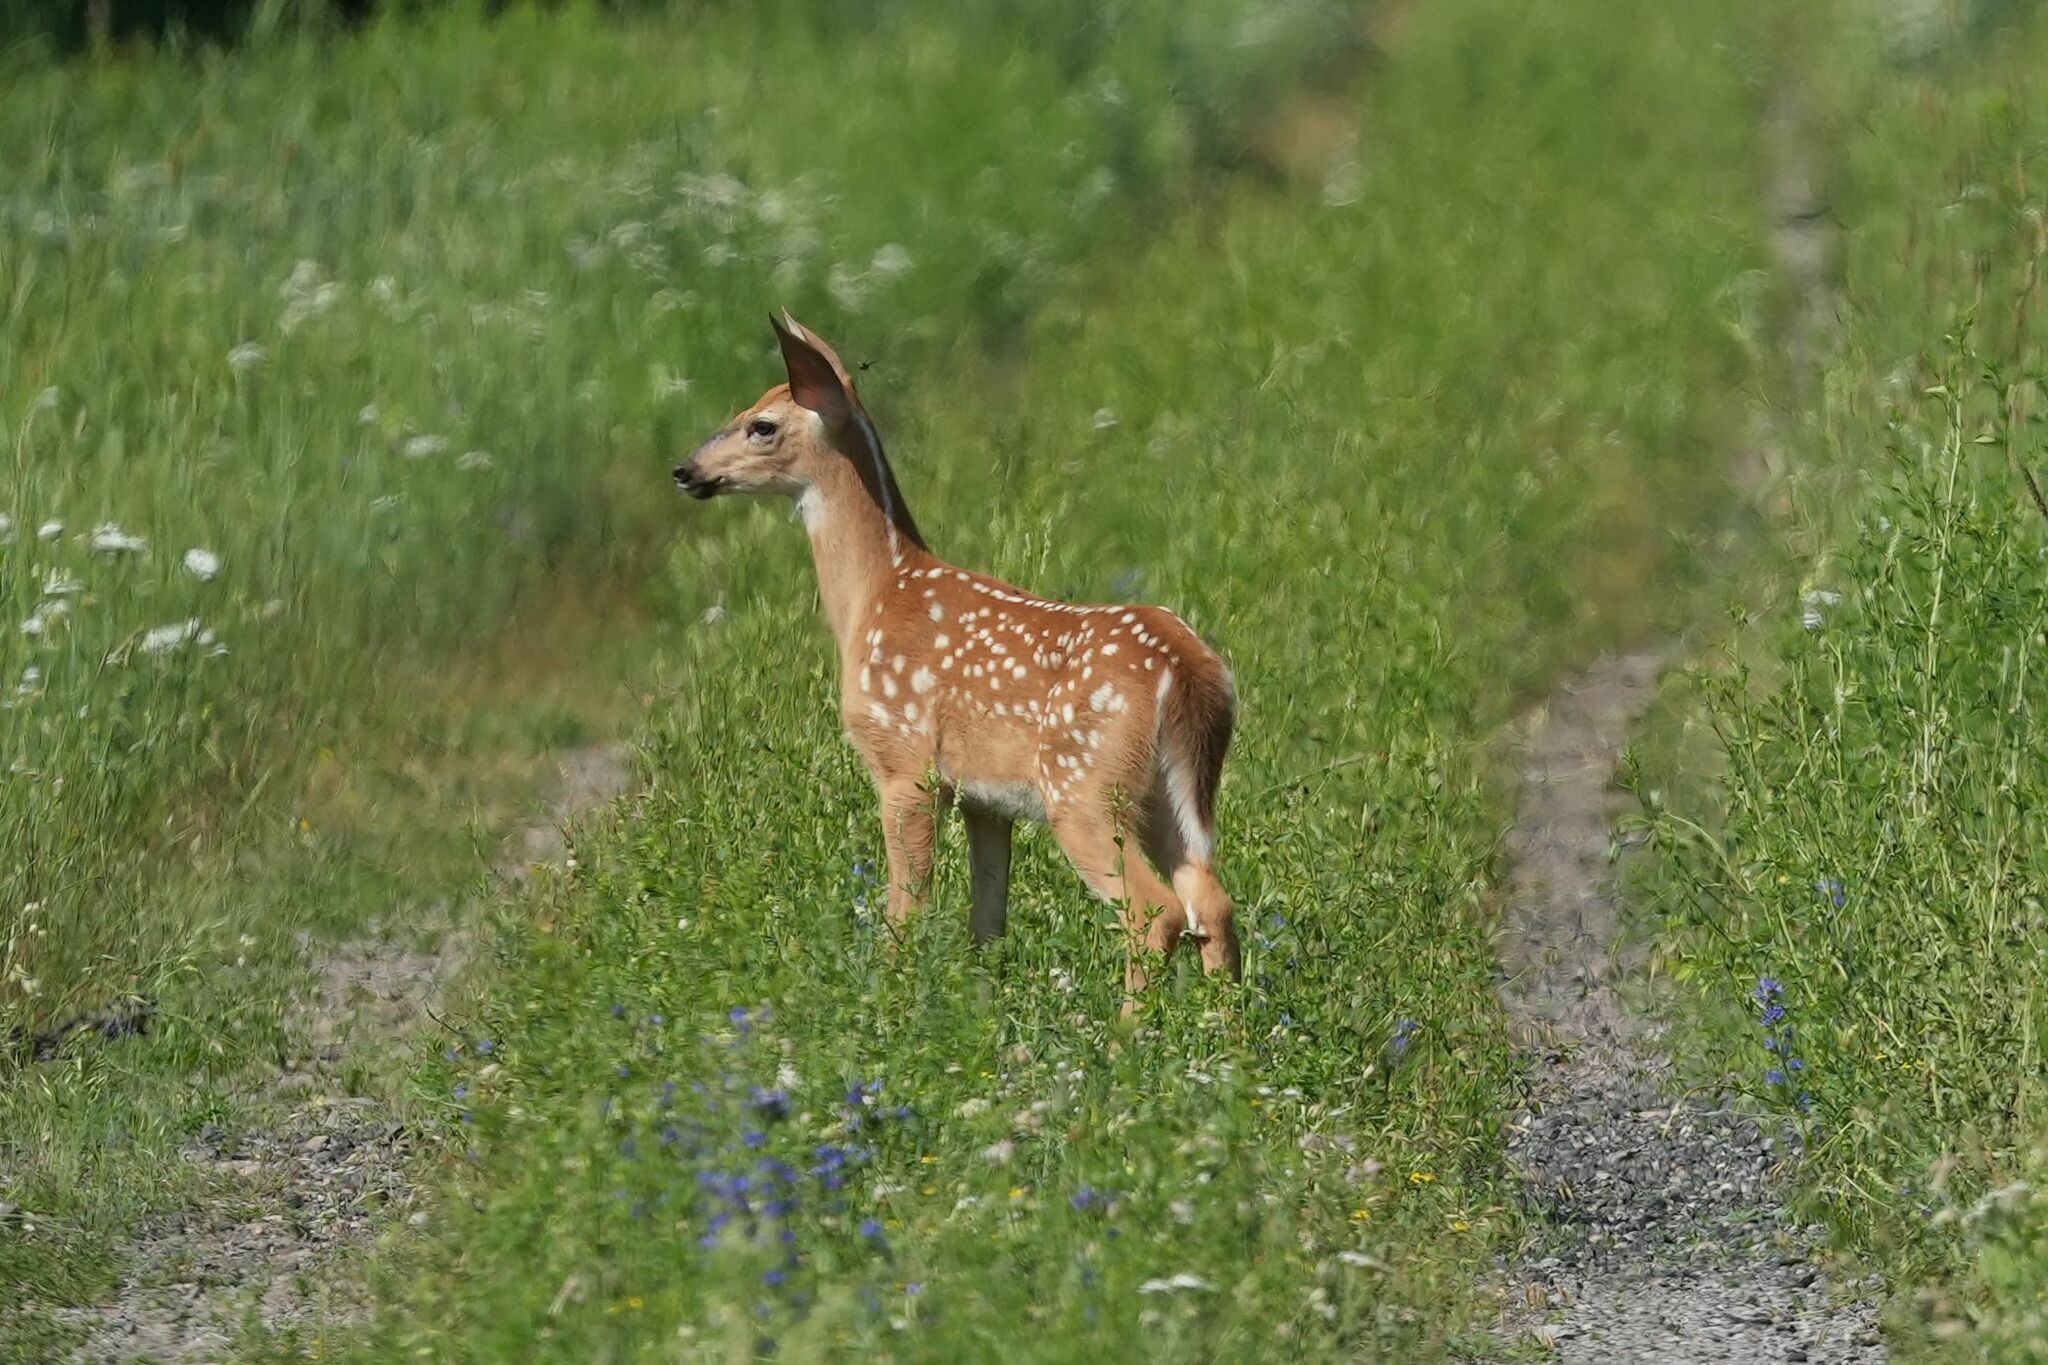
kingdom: Animalia
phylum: Chordata
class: Mammalia
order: Artiodactyla
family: Cervidae
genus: Odocoileus
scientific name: Odocoileus virginianus
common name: White-tailed deer
